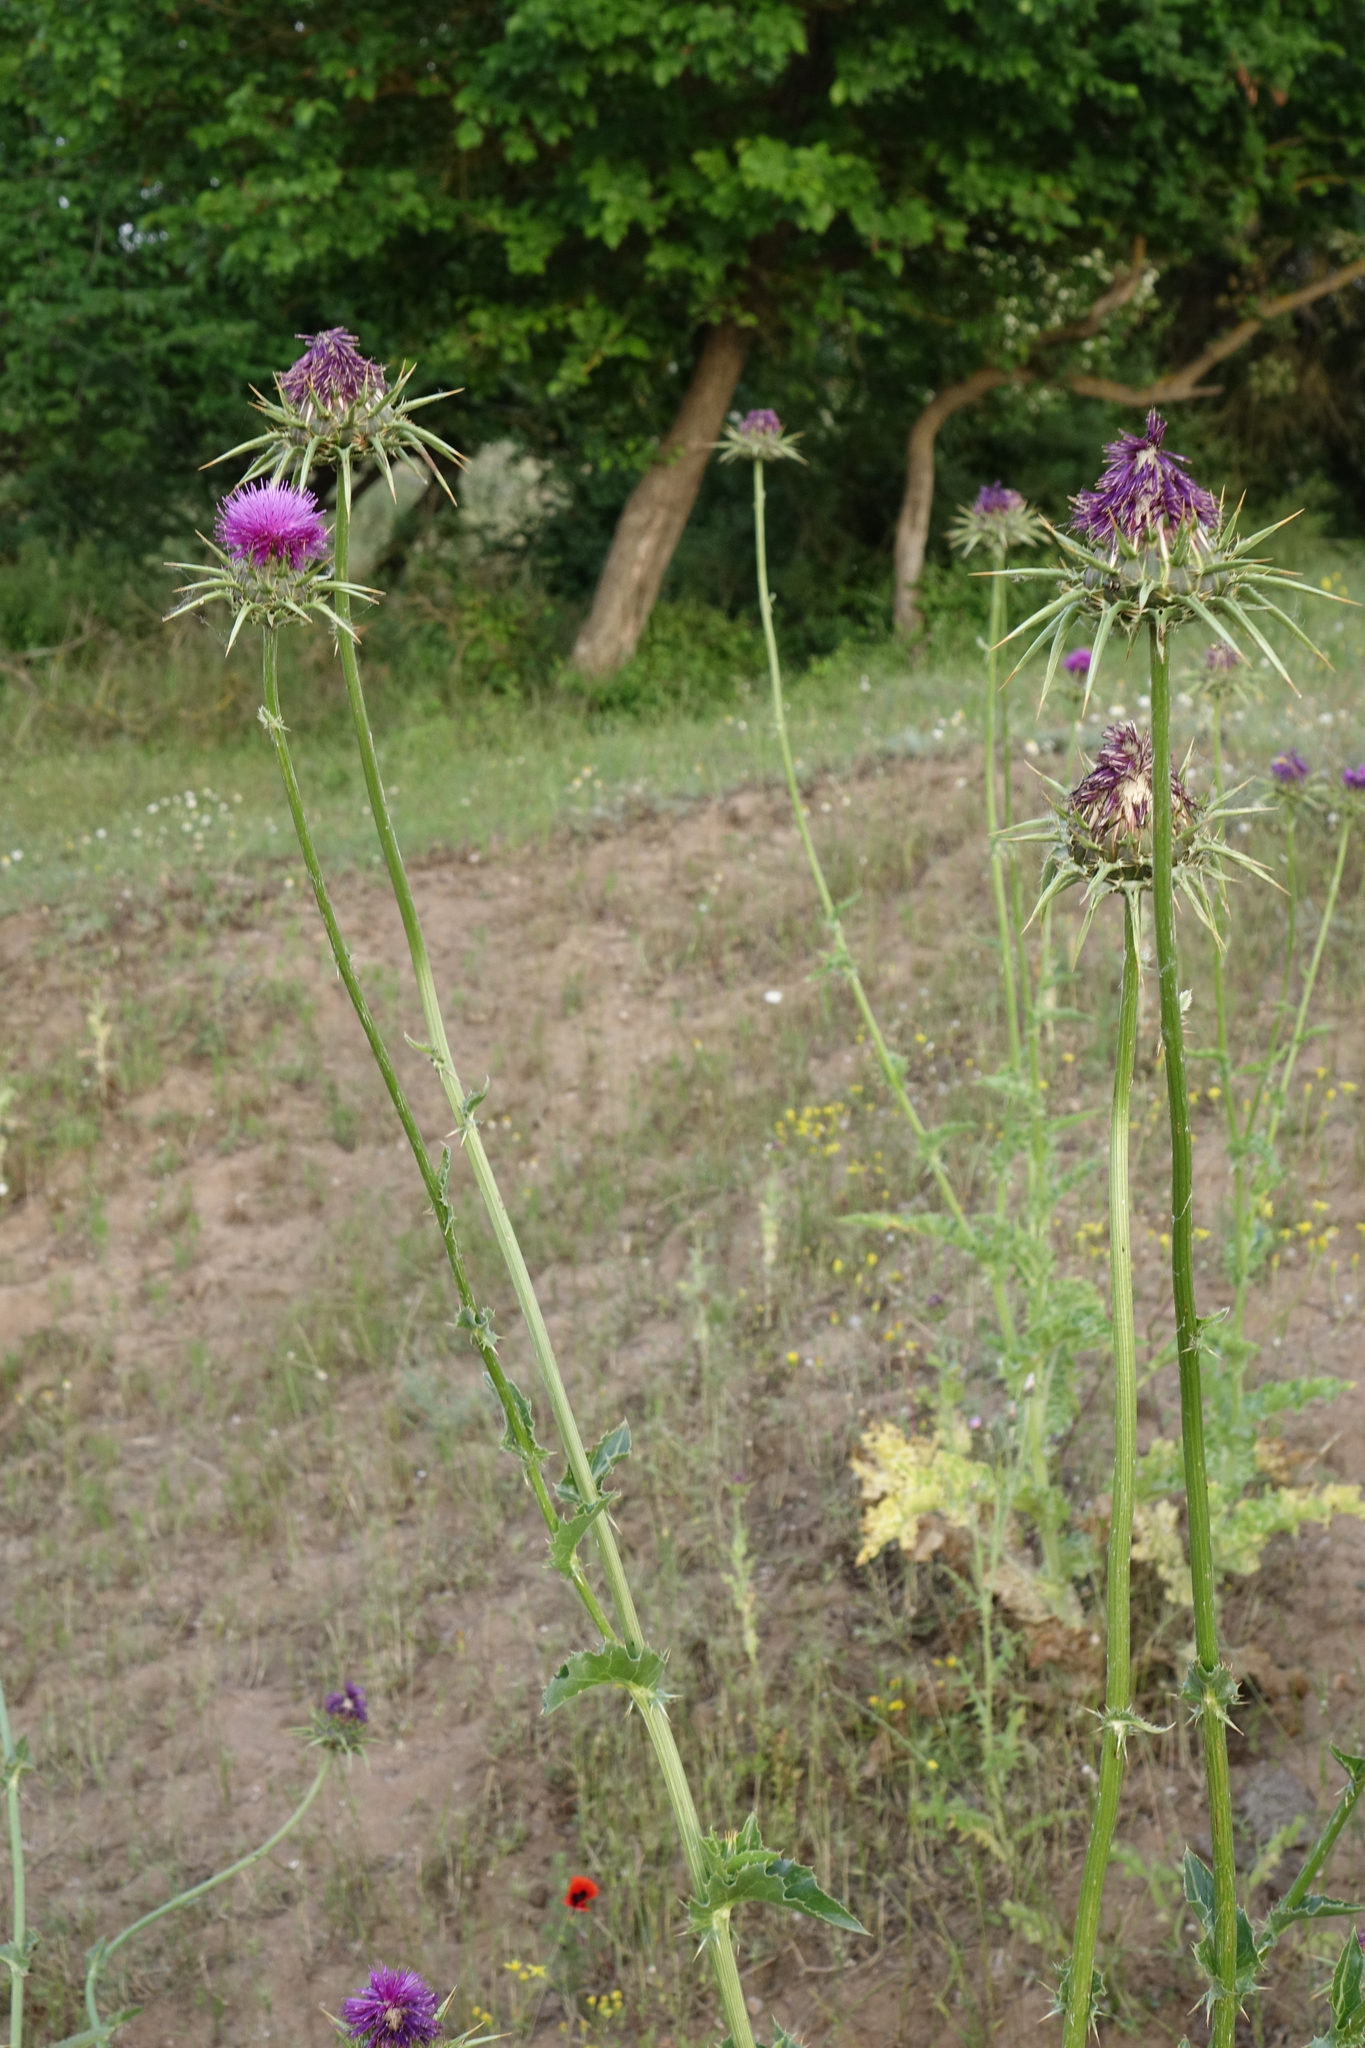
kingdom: Plantae
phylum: Tracheophyta
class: Magnoliopsida
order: Asterales
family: Asteraceae
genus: Silybum
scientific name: Silybum marianum
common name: Milk thistle
